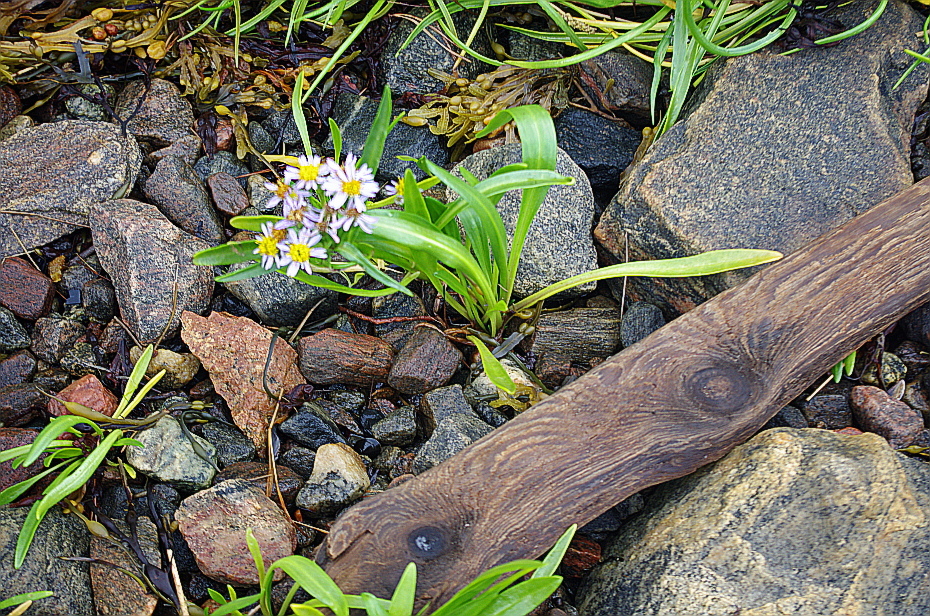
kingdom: Plantae
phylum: Tracheophyta
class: Magnoliopsida
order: Asterales
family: Asteraceae
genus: Tripolium
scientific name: Tripolium pannonicum
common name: Sea aster
